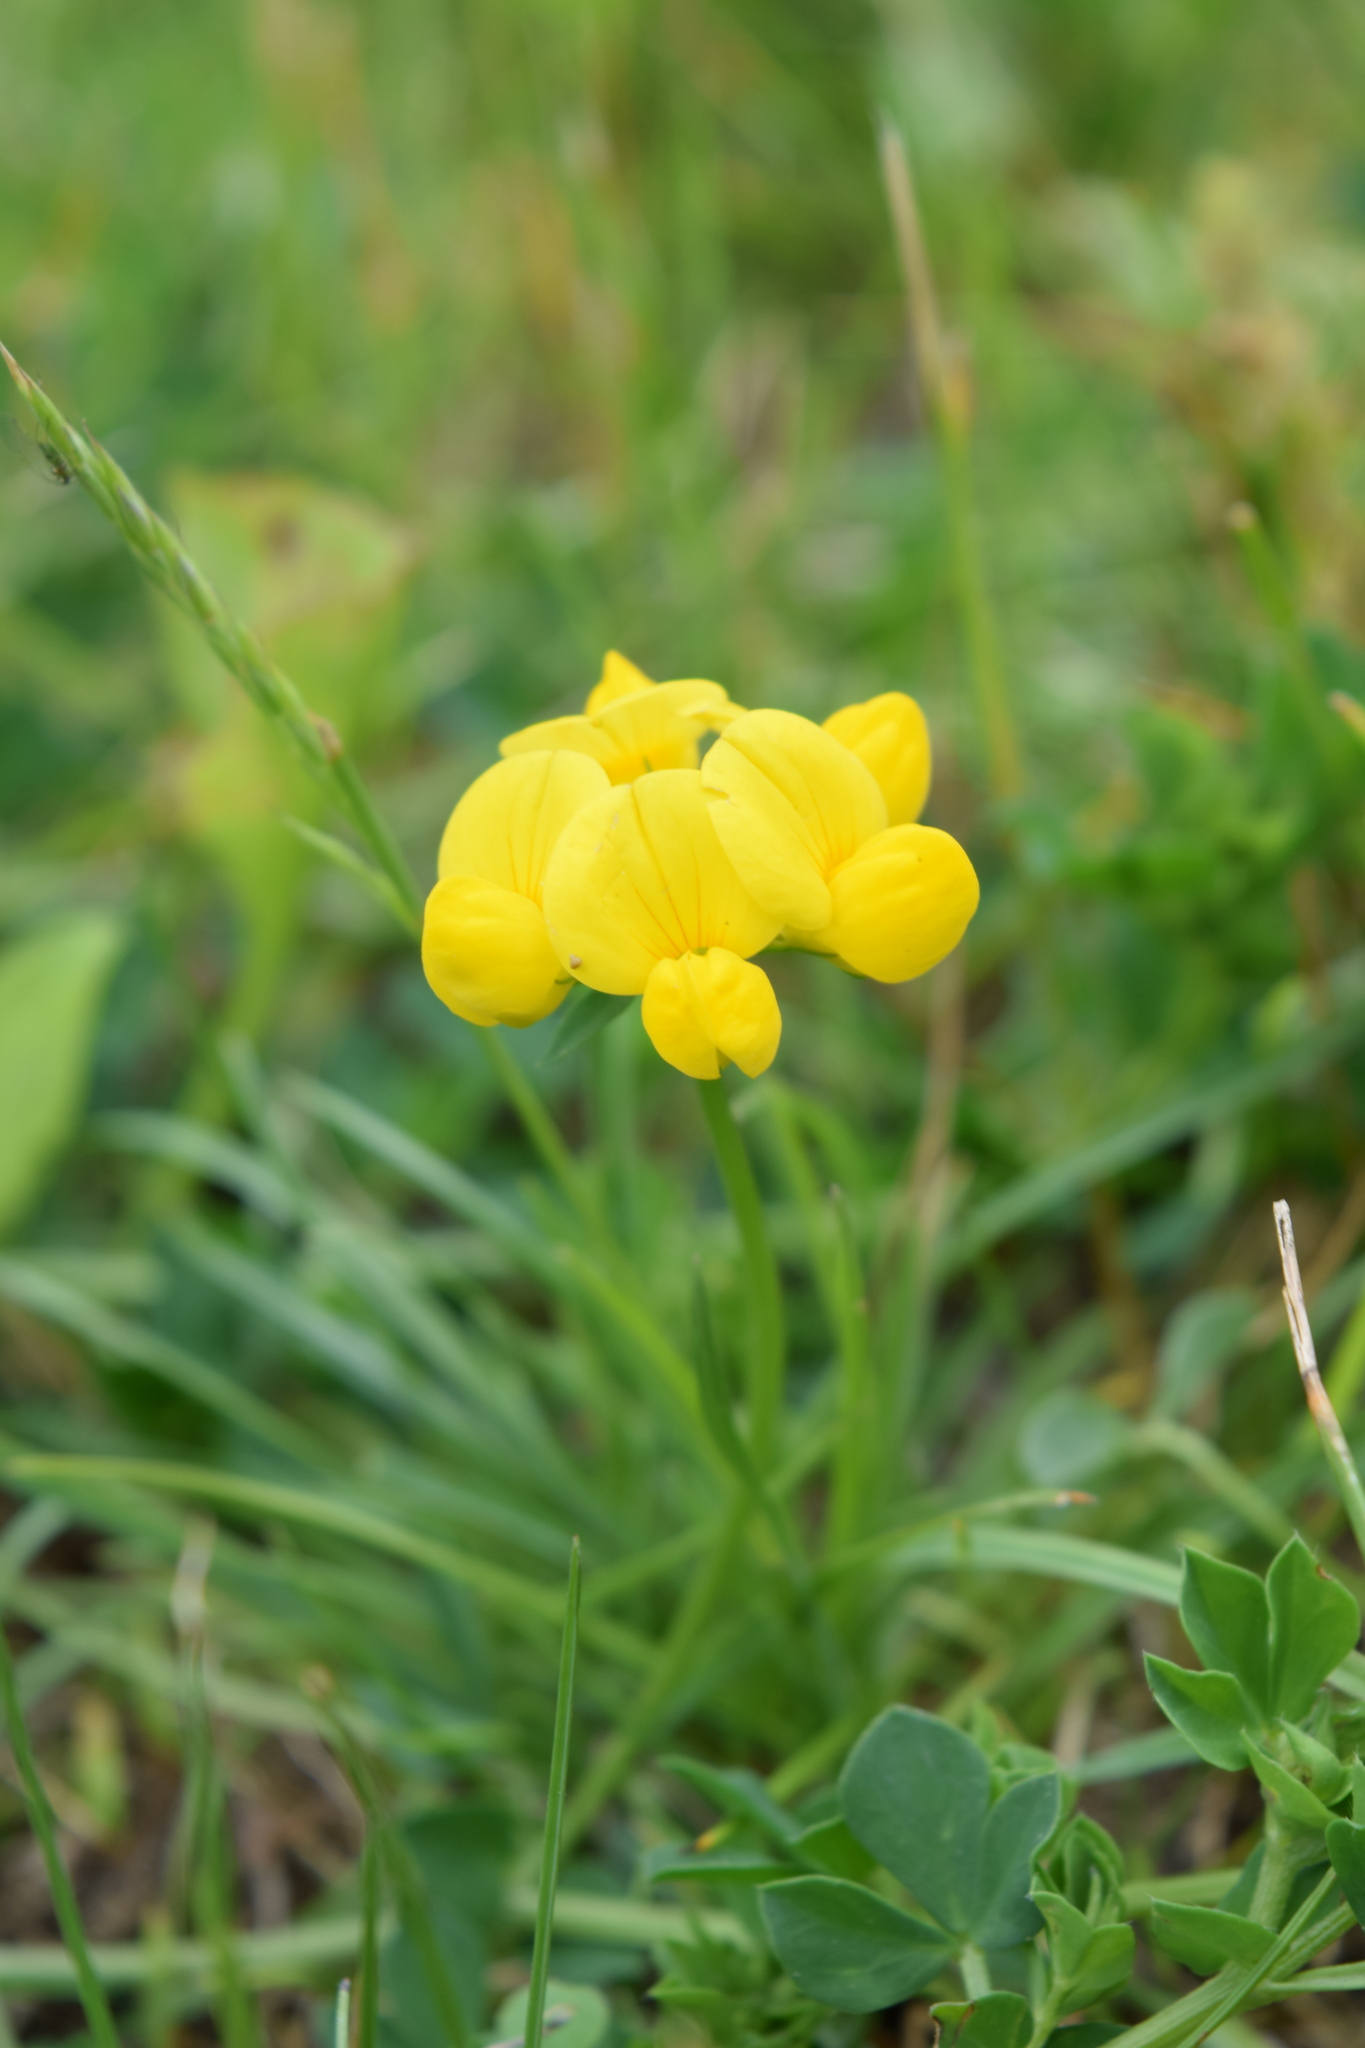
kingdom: Plantae
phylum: Tracheophyta
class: Magnoliopsida
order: Fabales
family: Fabaceae
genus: Lotus
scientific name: Lotus corniculatus
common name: Common bird's-foot-trefoil
